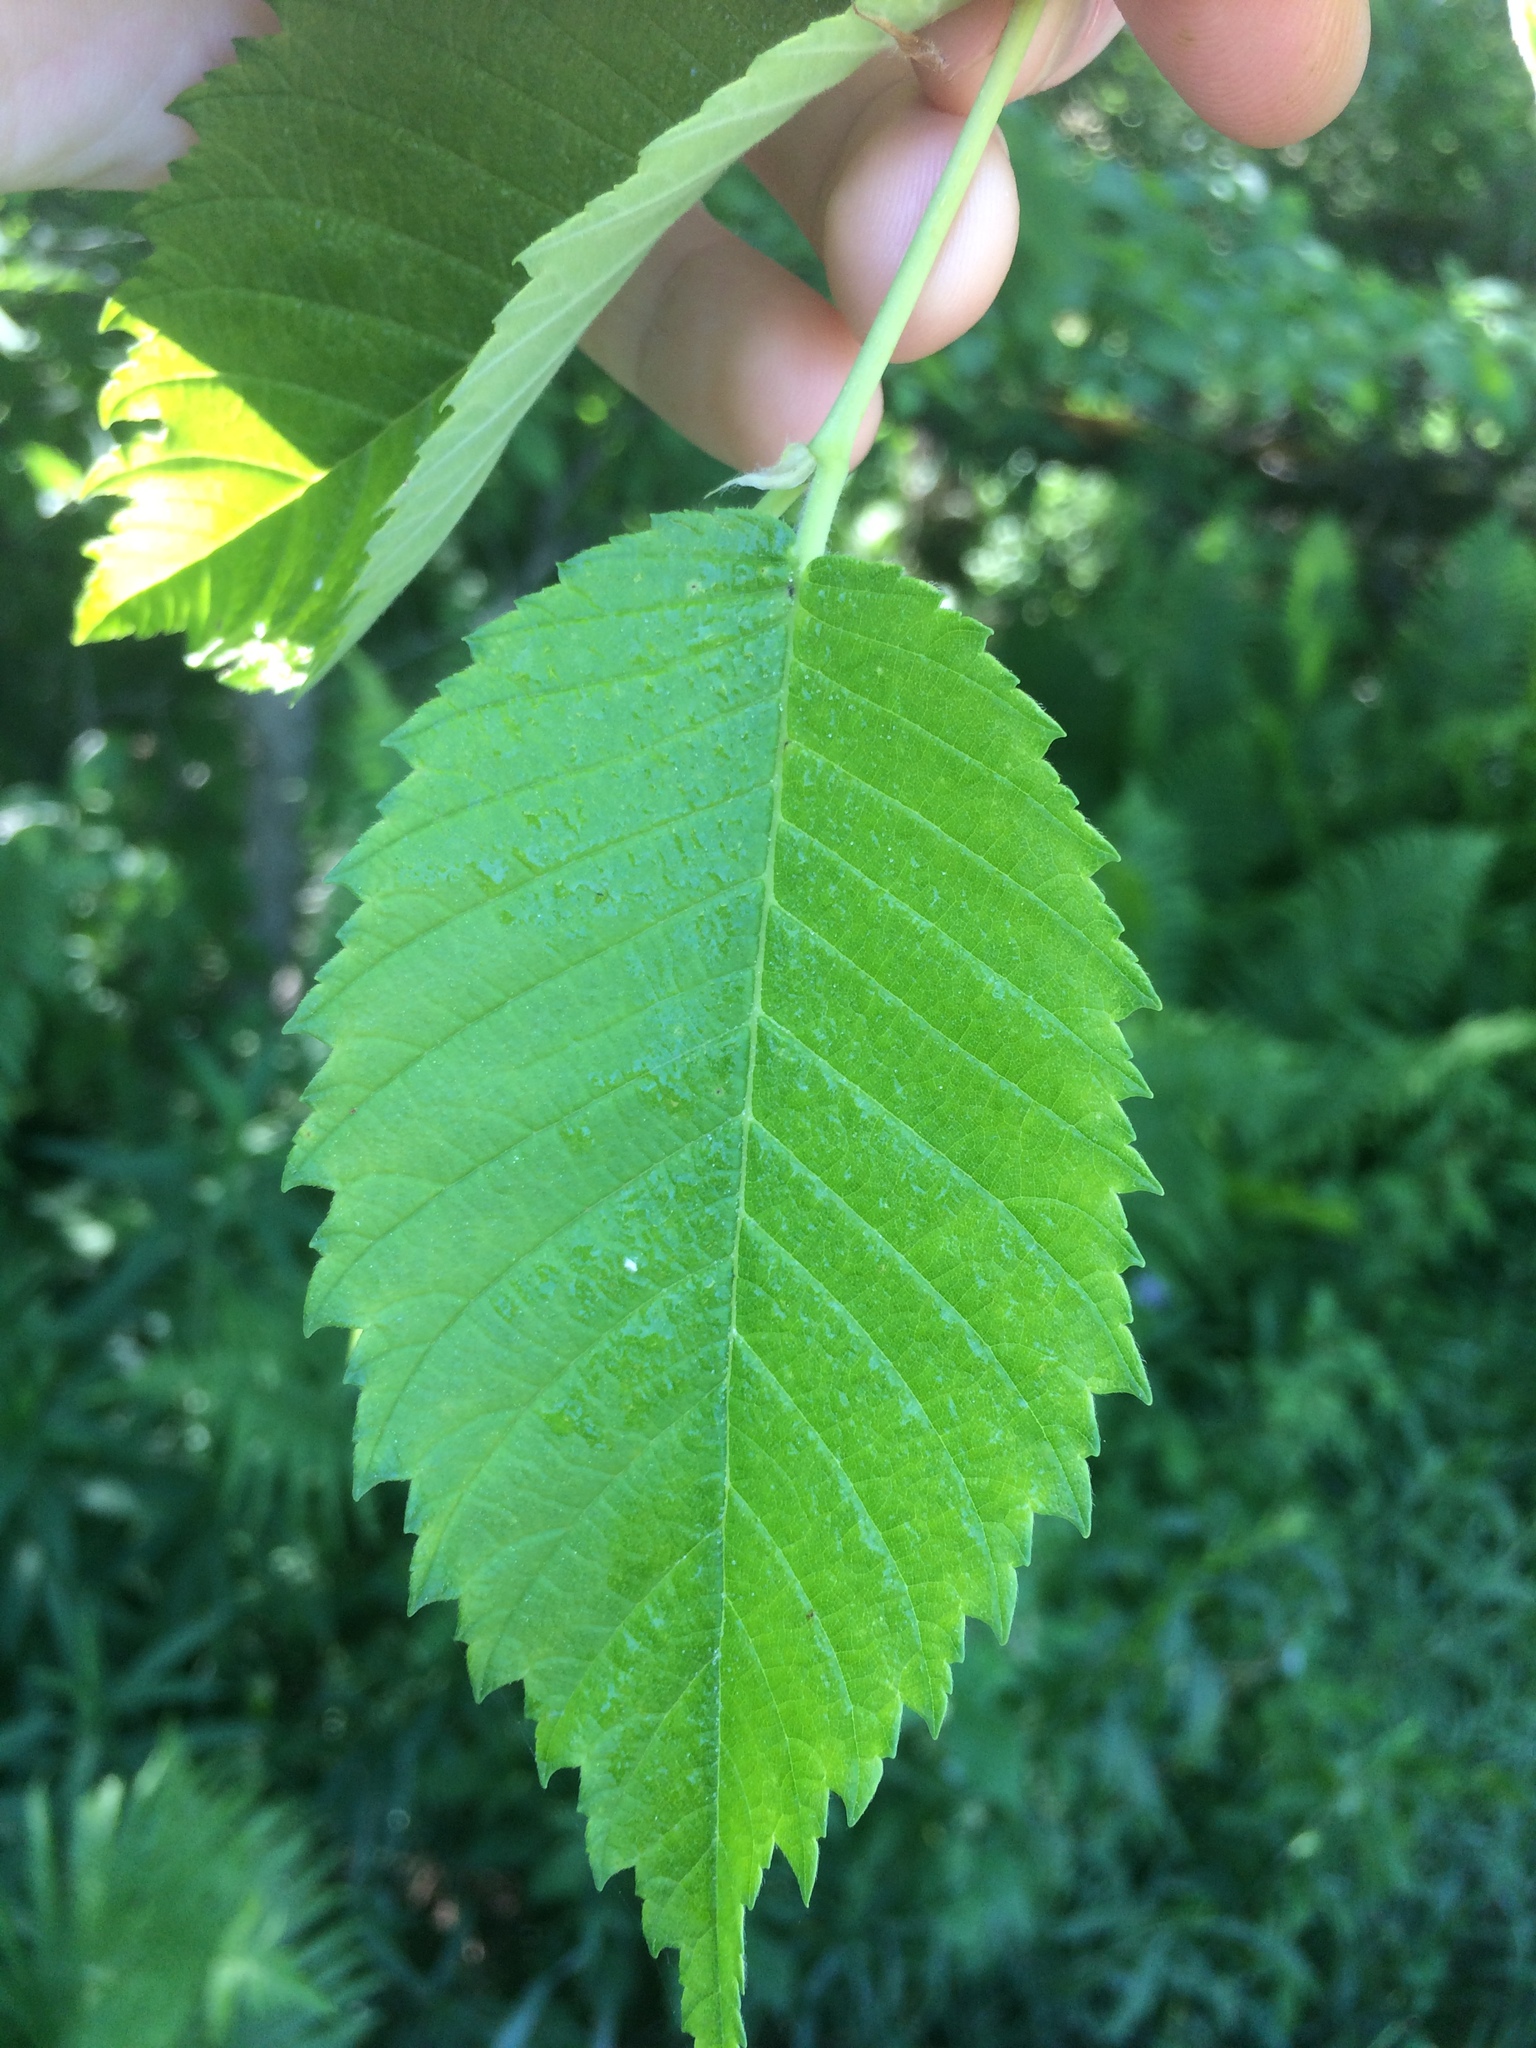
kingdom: Plantae
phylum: Tracheophyta
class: Magnoliopsida
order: Rosales
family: Ulmaceae
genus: Ulmus
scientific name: Ulmus americana
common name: American elm
